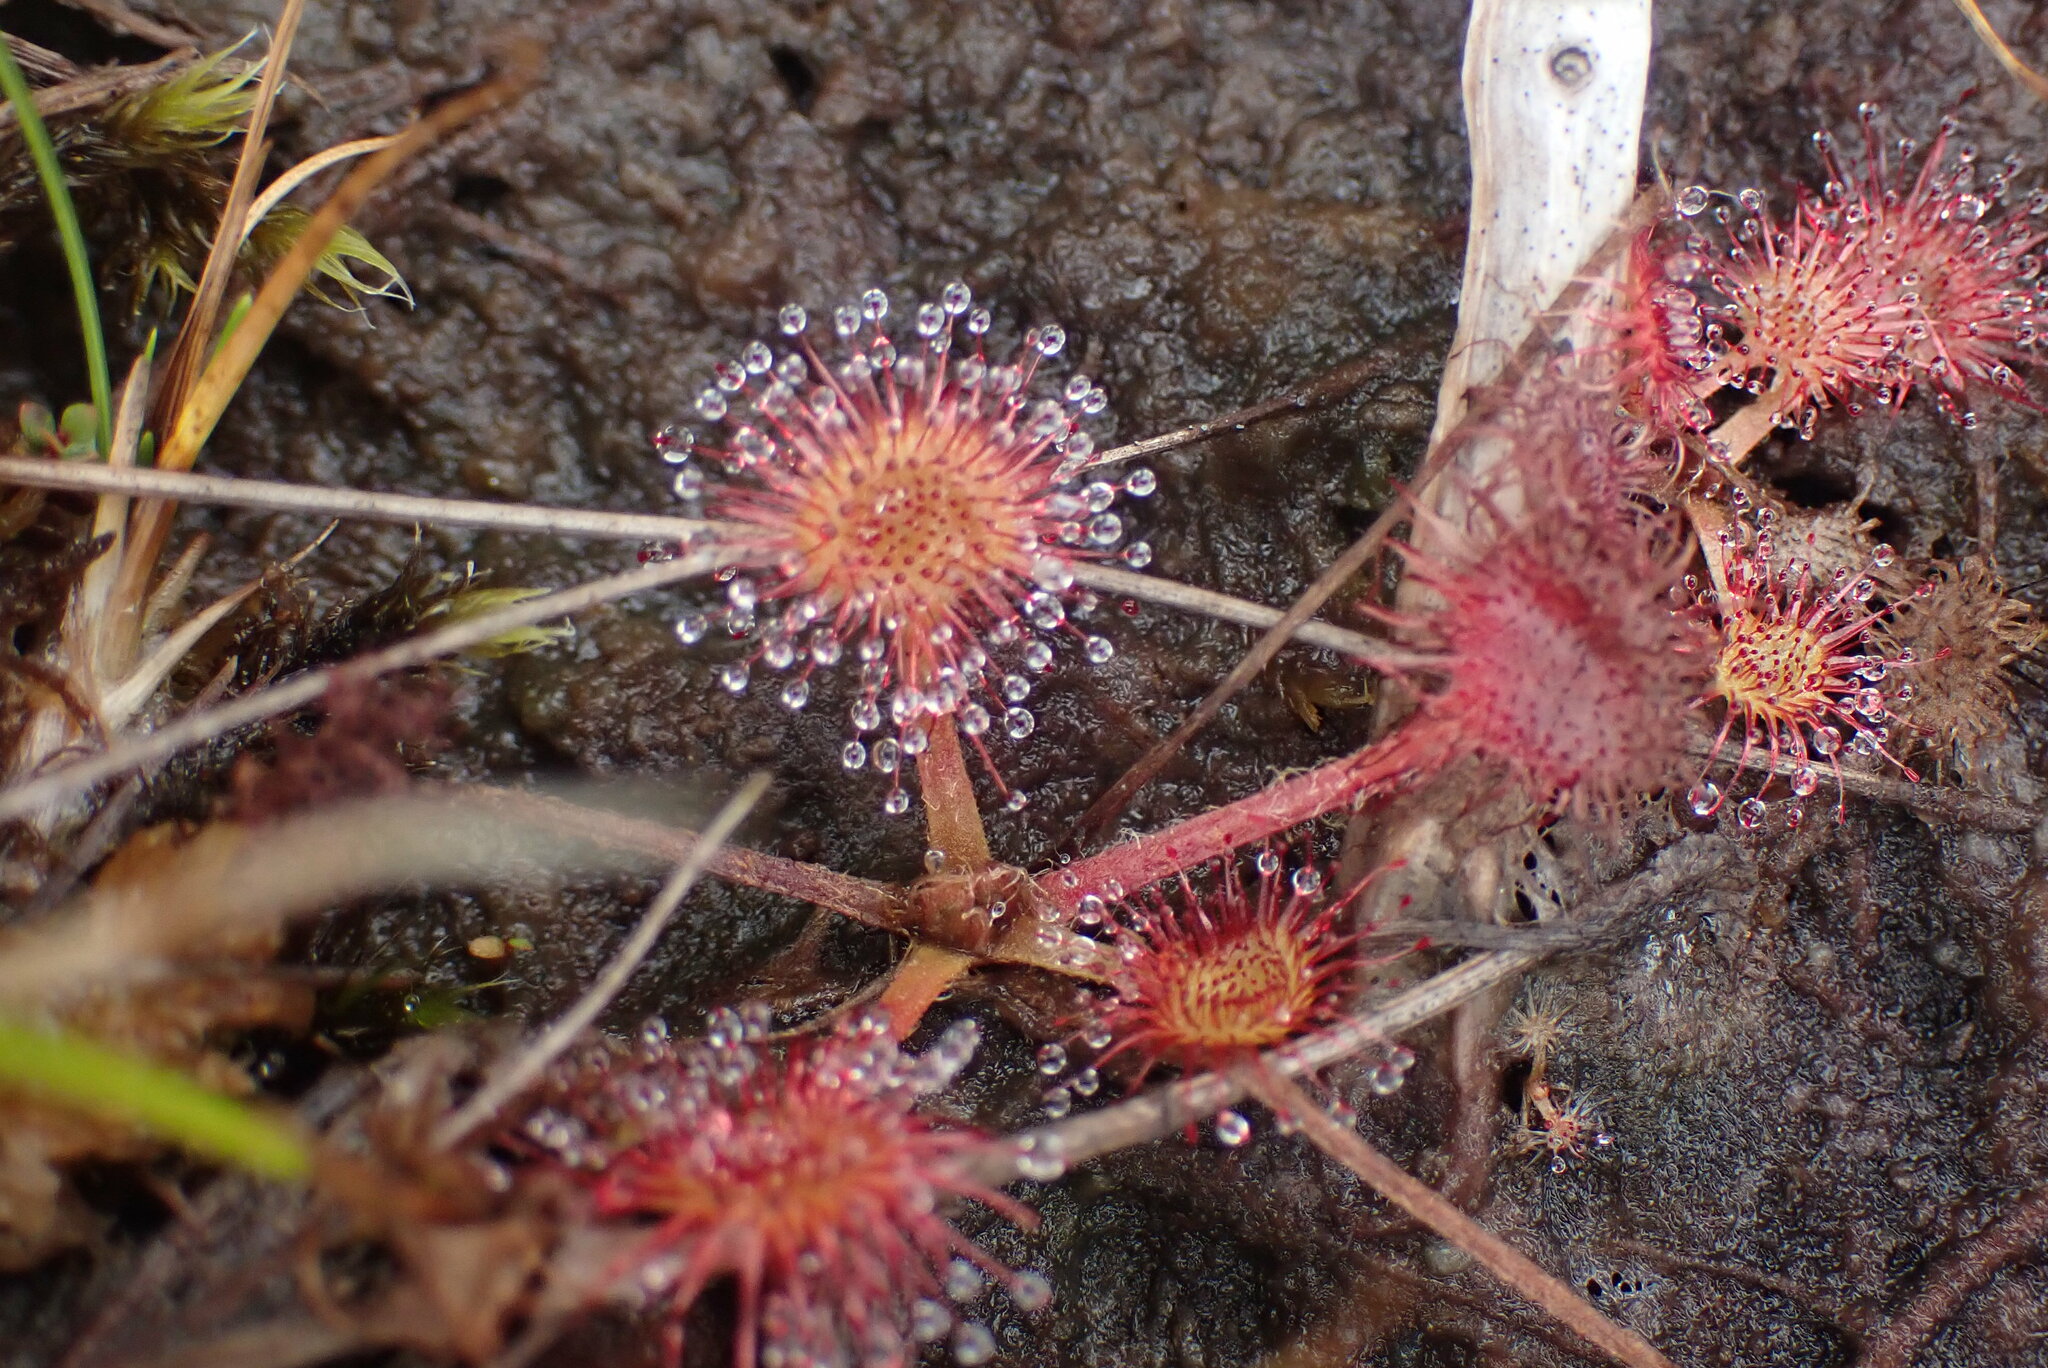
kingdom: Plantae
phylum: Tracheophyta
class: Magnoliopsida
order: Caryophyllales
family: Droseraceae
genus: Drosera
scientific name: Drosera rotundifolia
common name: Round-leaved sundew
